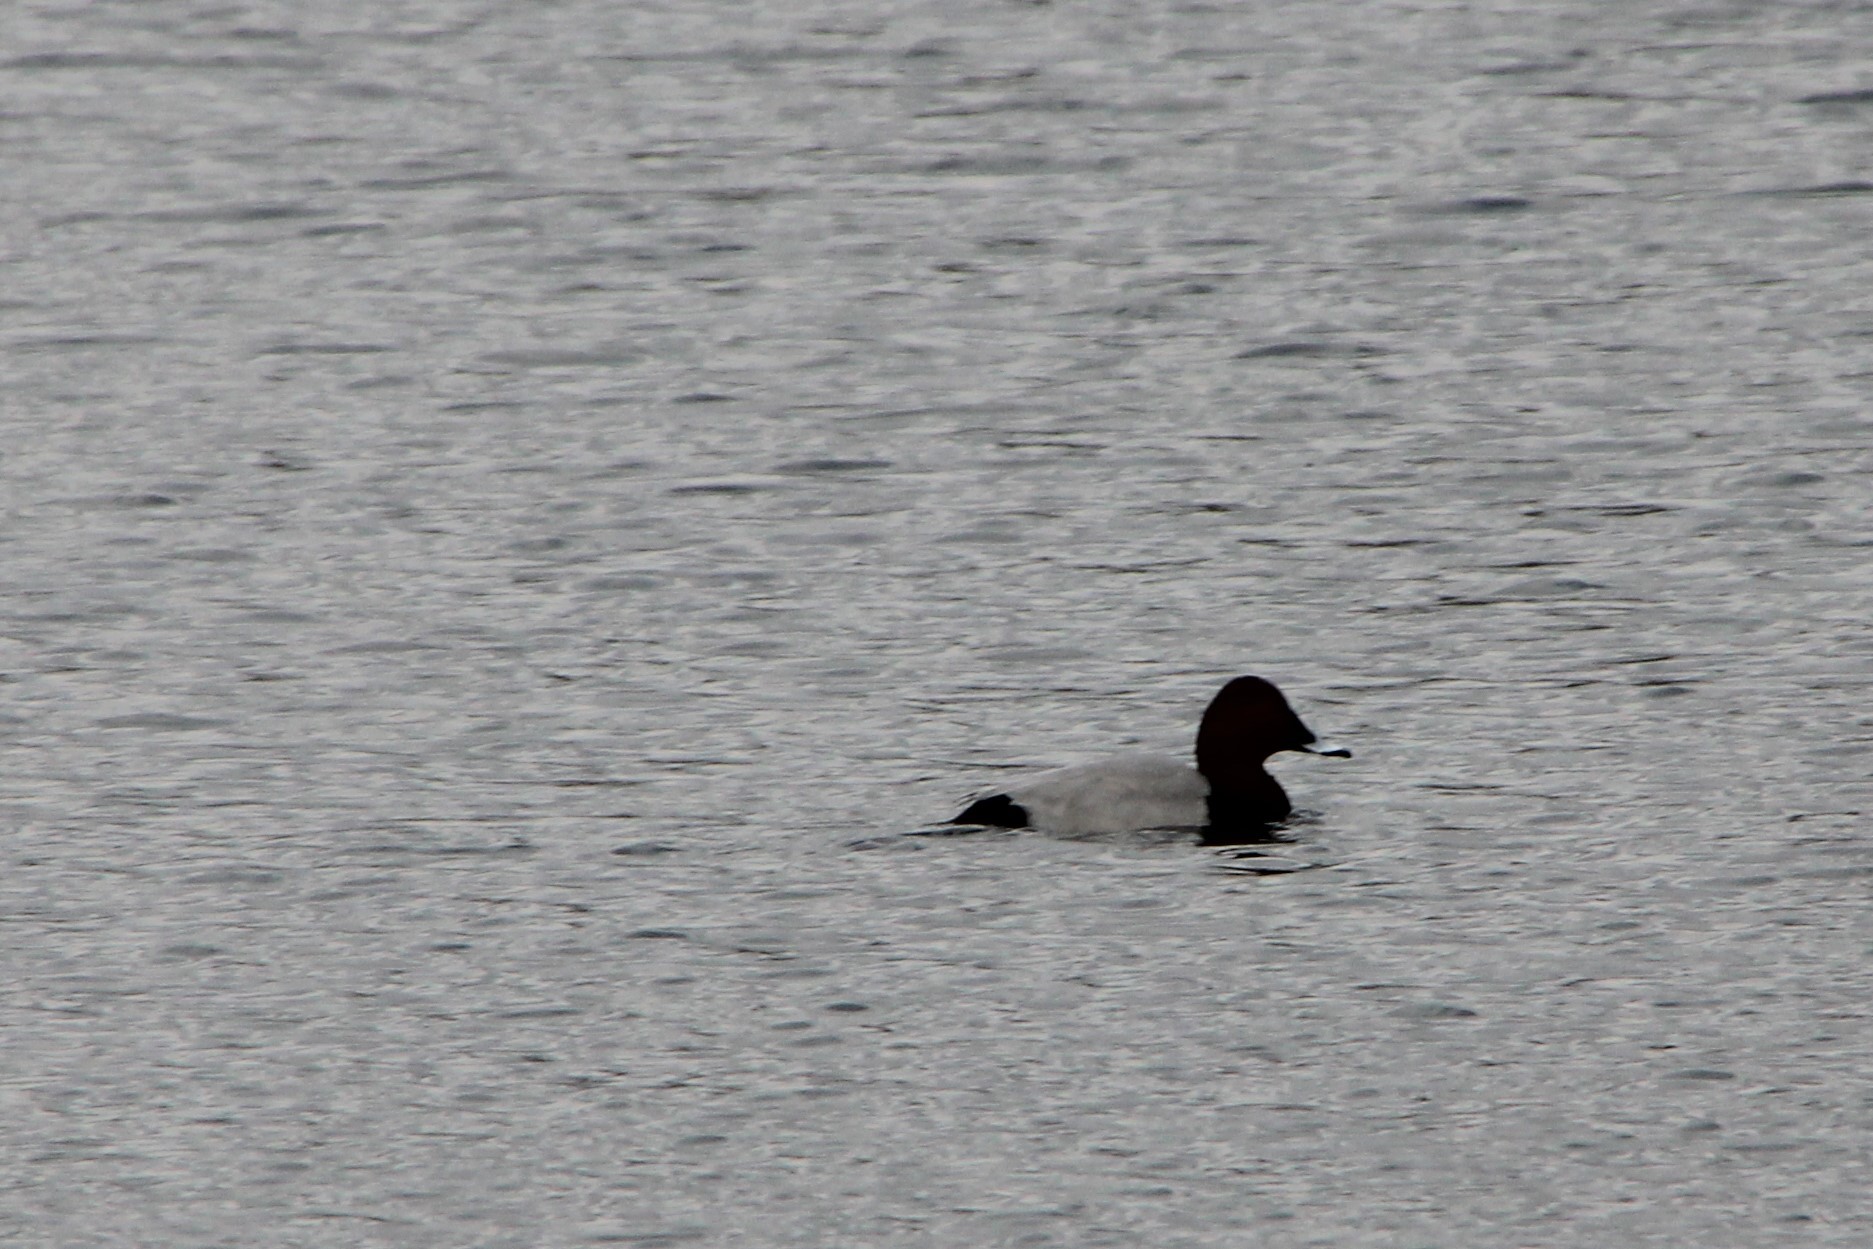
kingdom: Animalia
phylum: Chordata
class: Aves
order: Anseriformes
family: Anatidae
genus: Aythya
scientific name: Aythya ferina
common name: Common pochard
